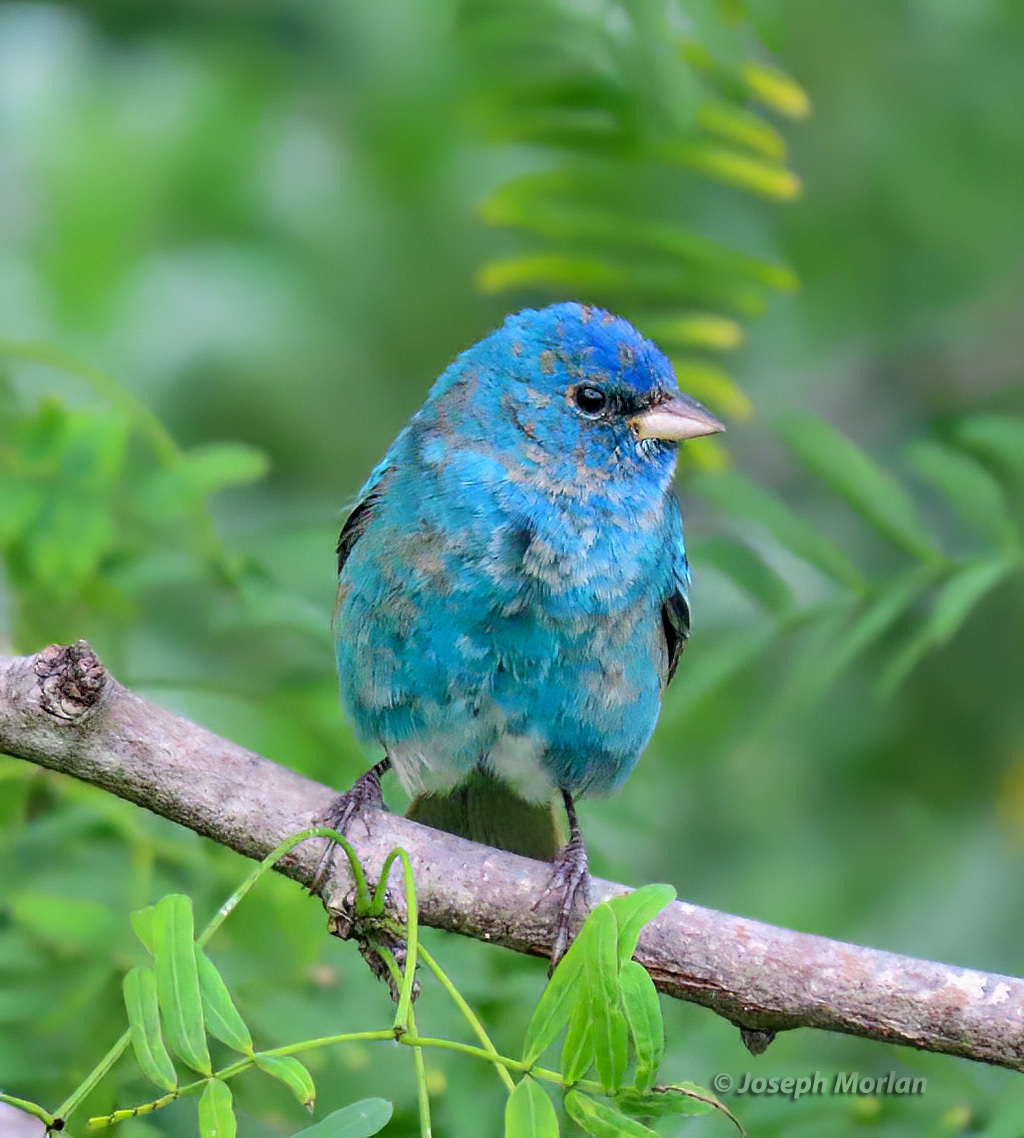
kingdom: Animalia
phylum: Chordata
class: Aves
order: Passeriformes
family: Cardinalidae
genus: Passerina
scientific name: Passerina cyanea
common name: Indigo bunting
